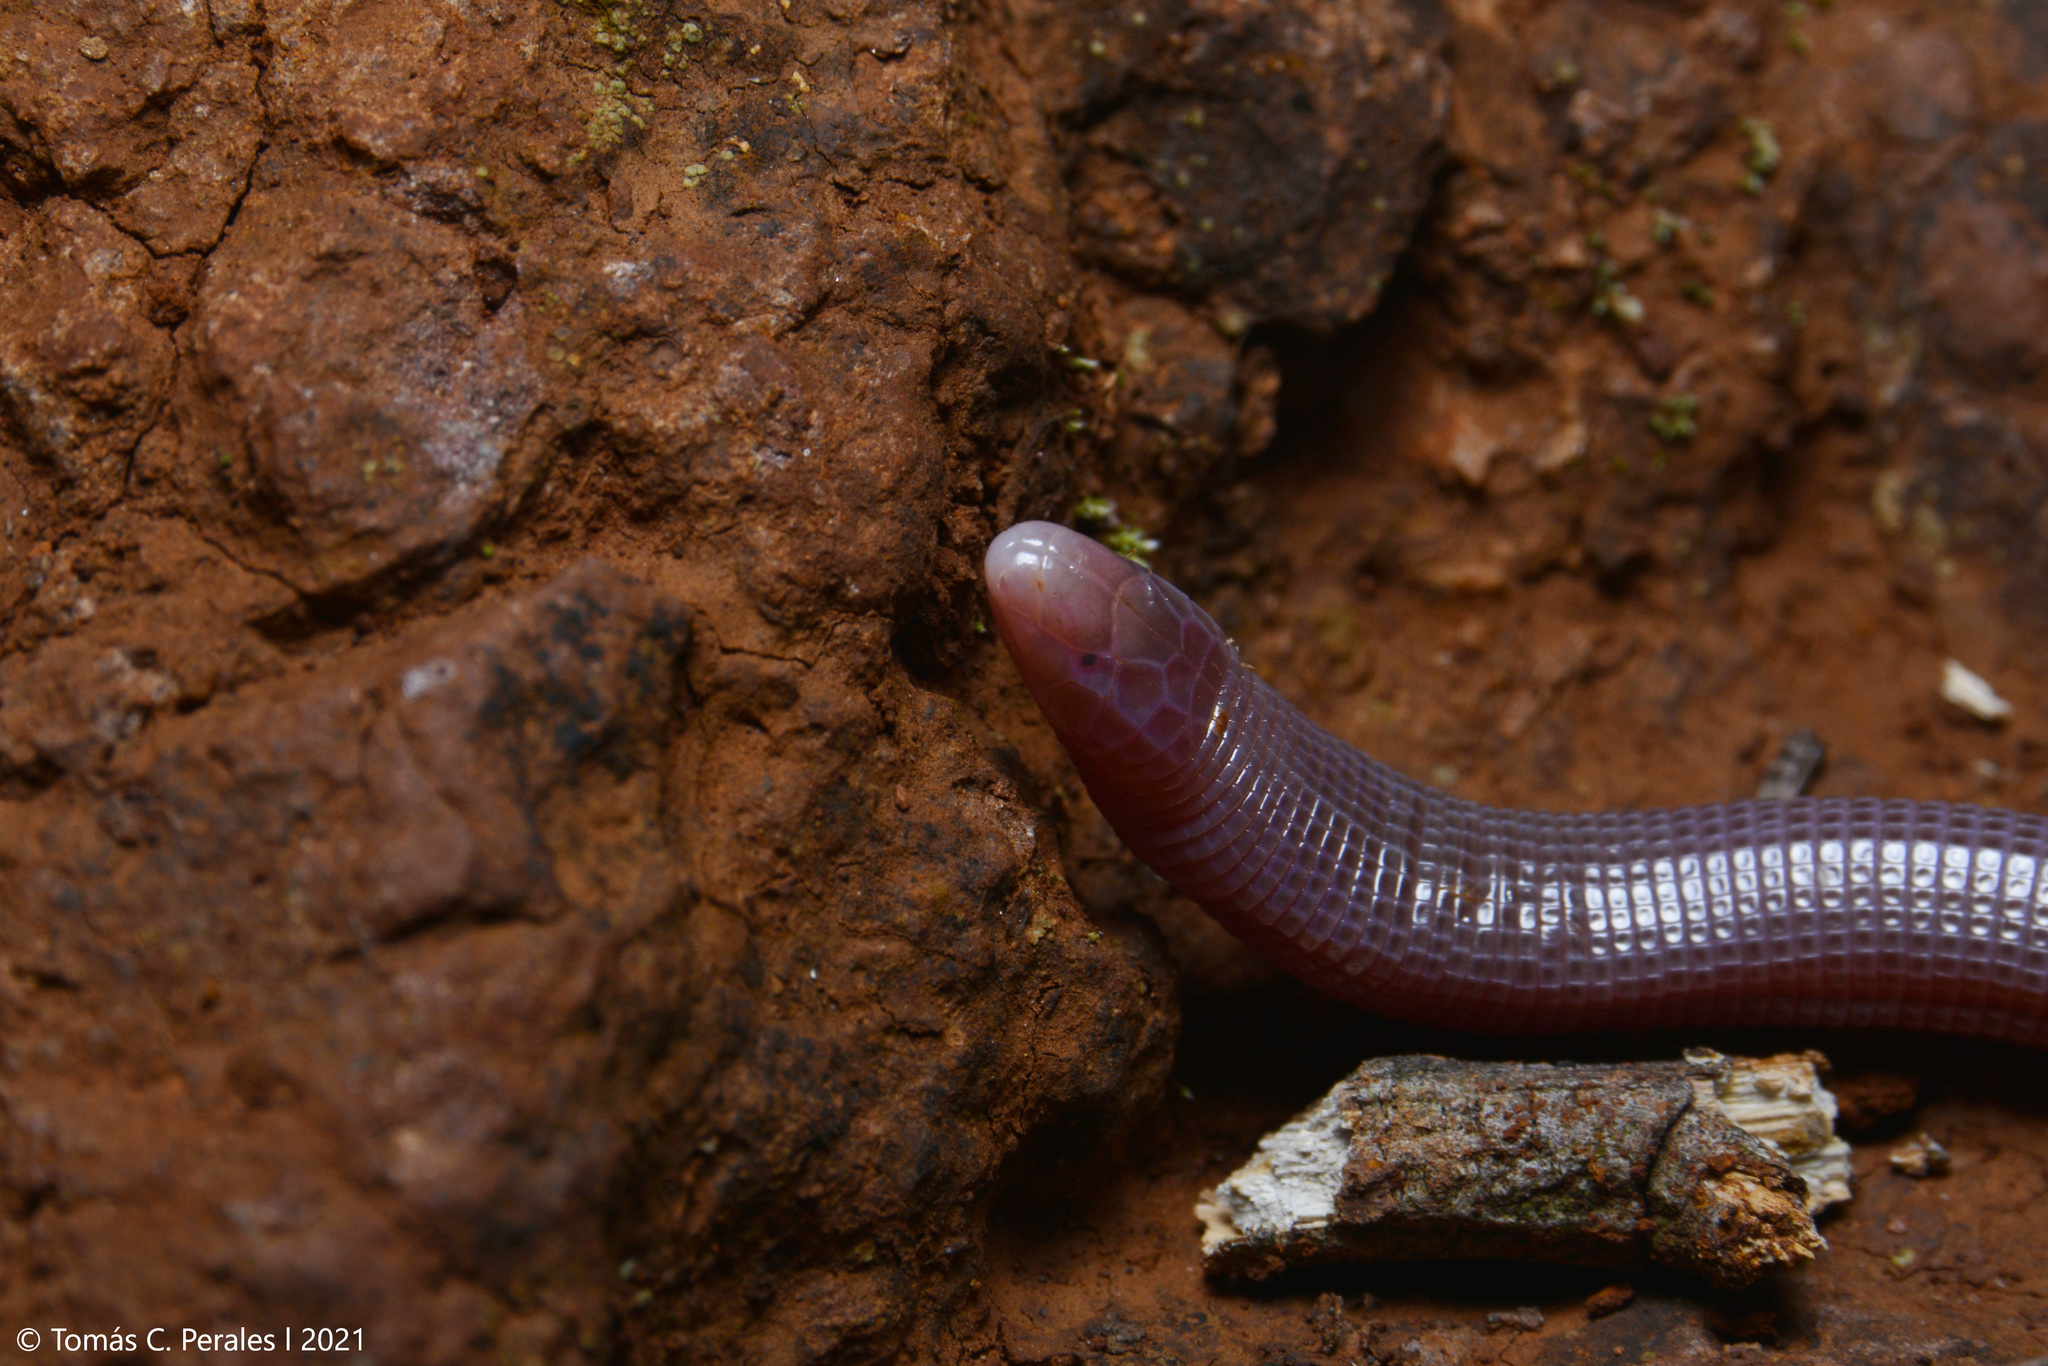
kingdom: Animalia
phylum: Chordata
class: Squamata
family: Amphisbaenidae
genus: Amphisbaena
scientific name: Amphisbaena prunicolor
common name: Plum-colored worm lizard
